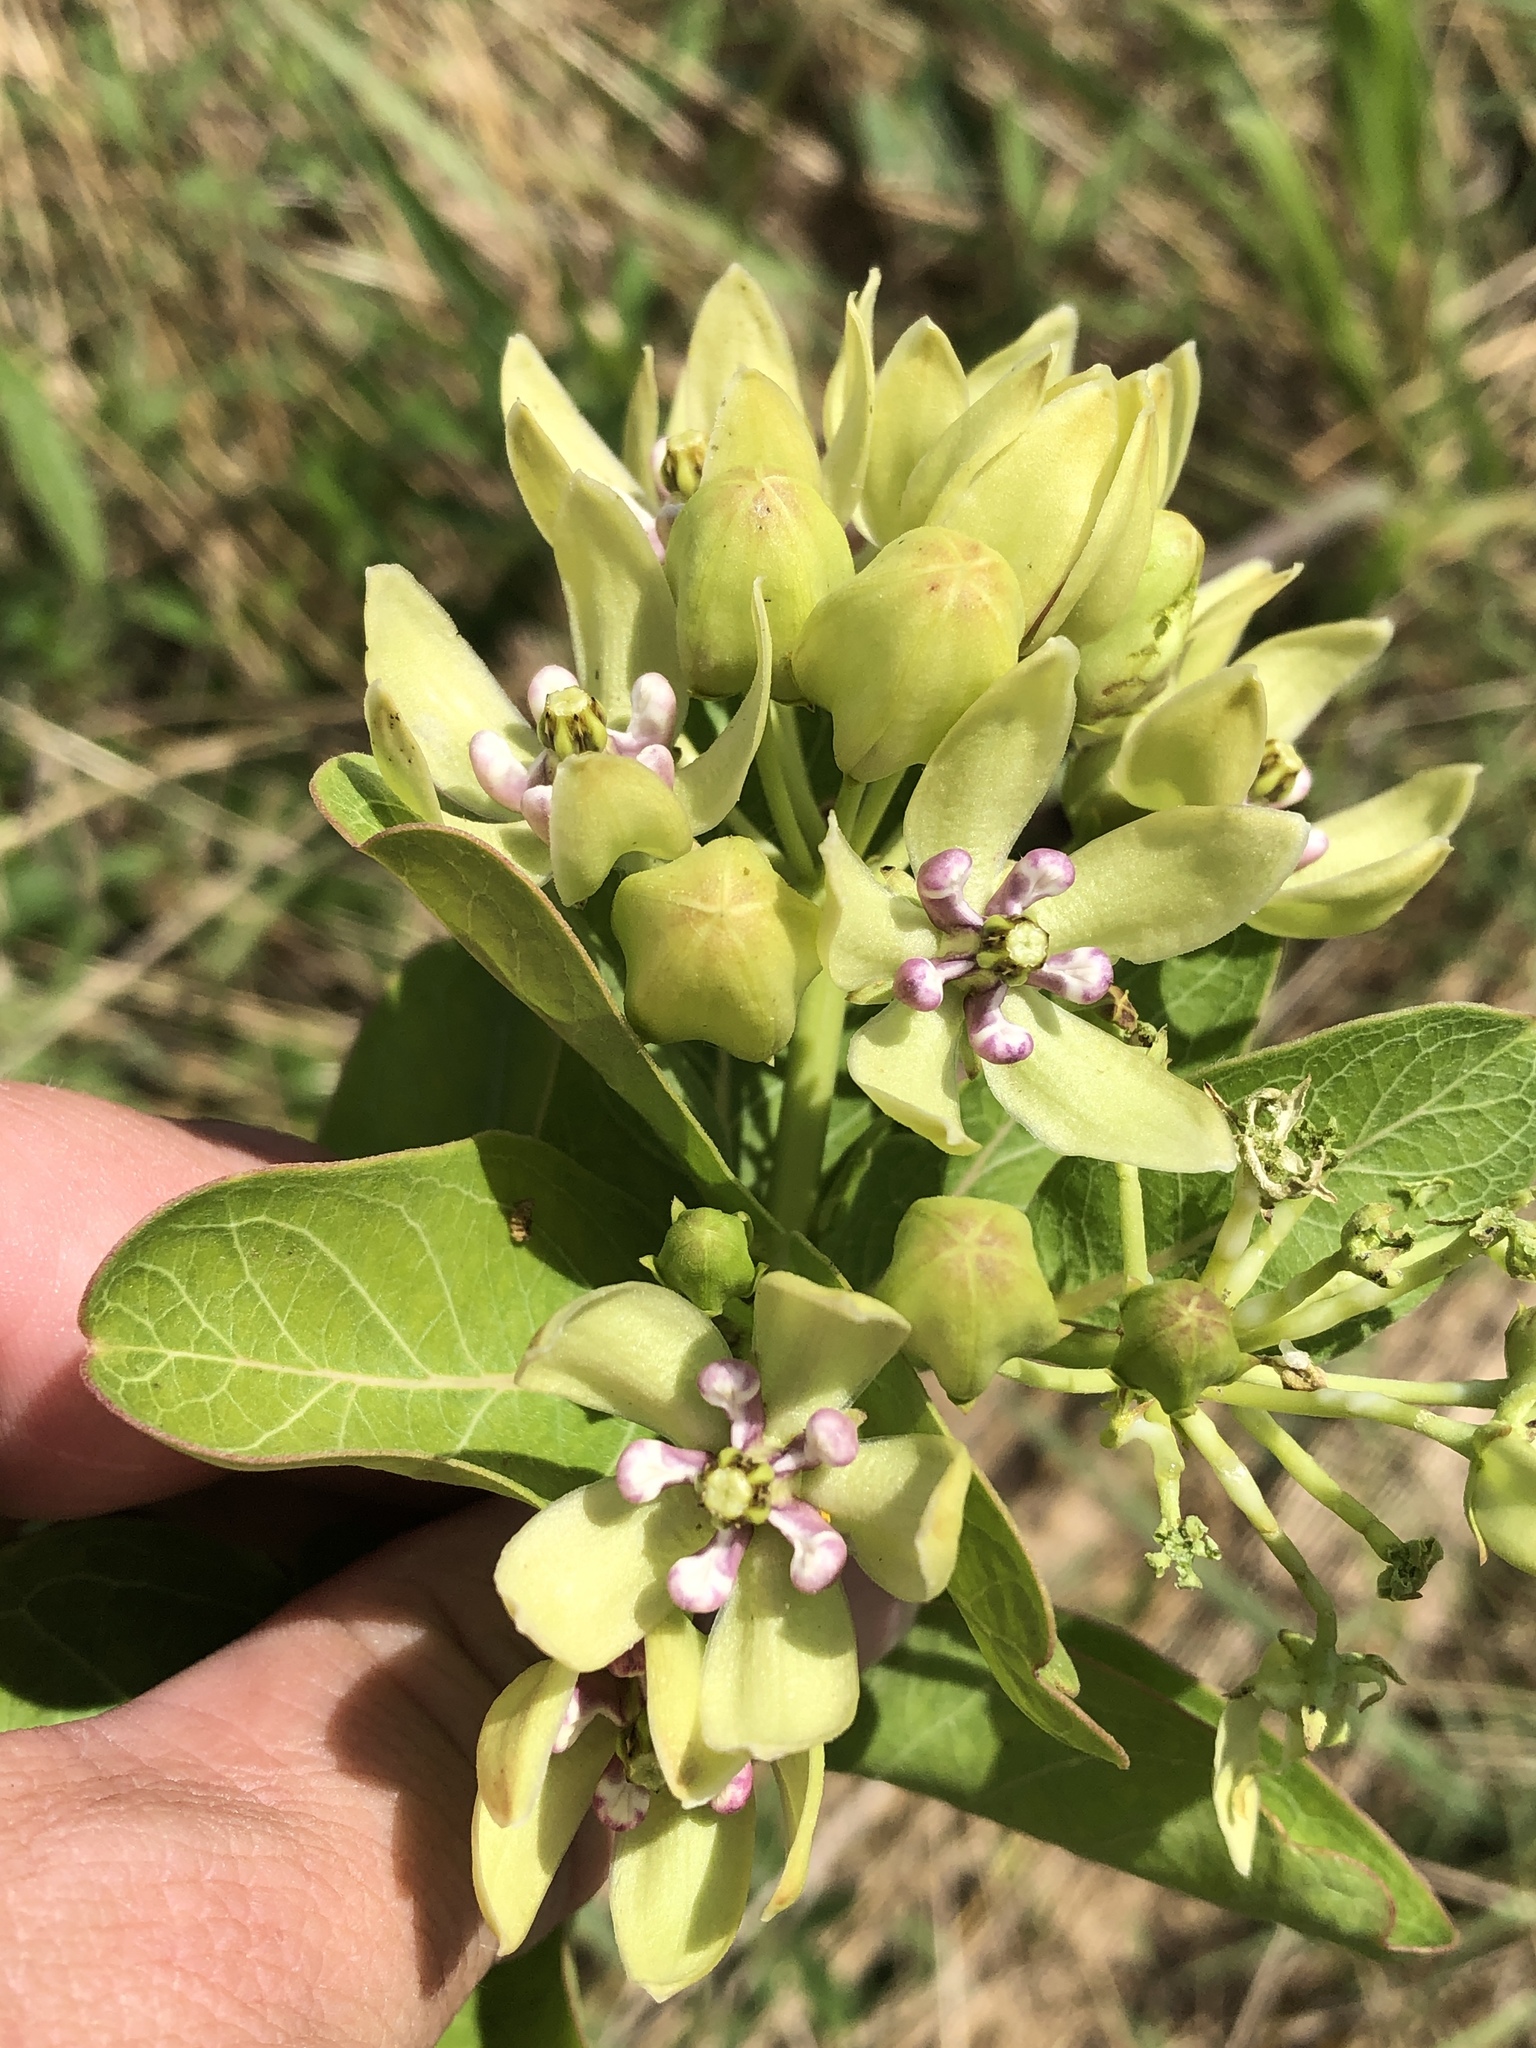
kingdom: Plantae
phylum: Tracheophyta
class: Magnoliopsida
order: Gentianales
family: Apocynaceae
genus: Asclepias
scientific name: Asclepias viridis
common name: Antelope-horns
